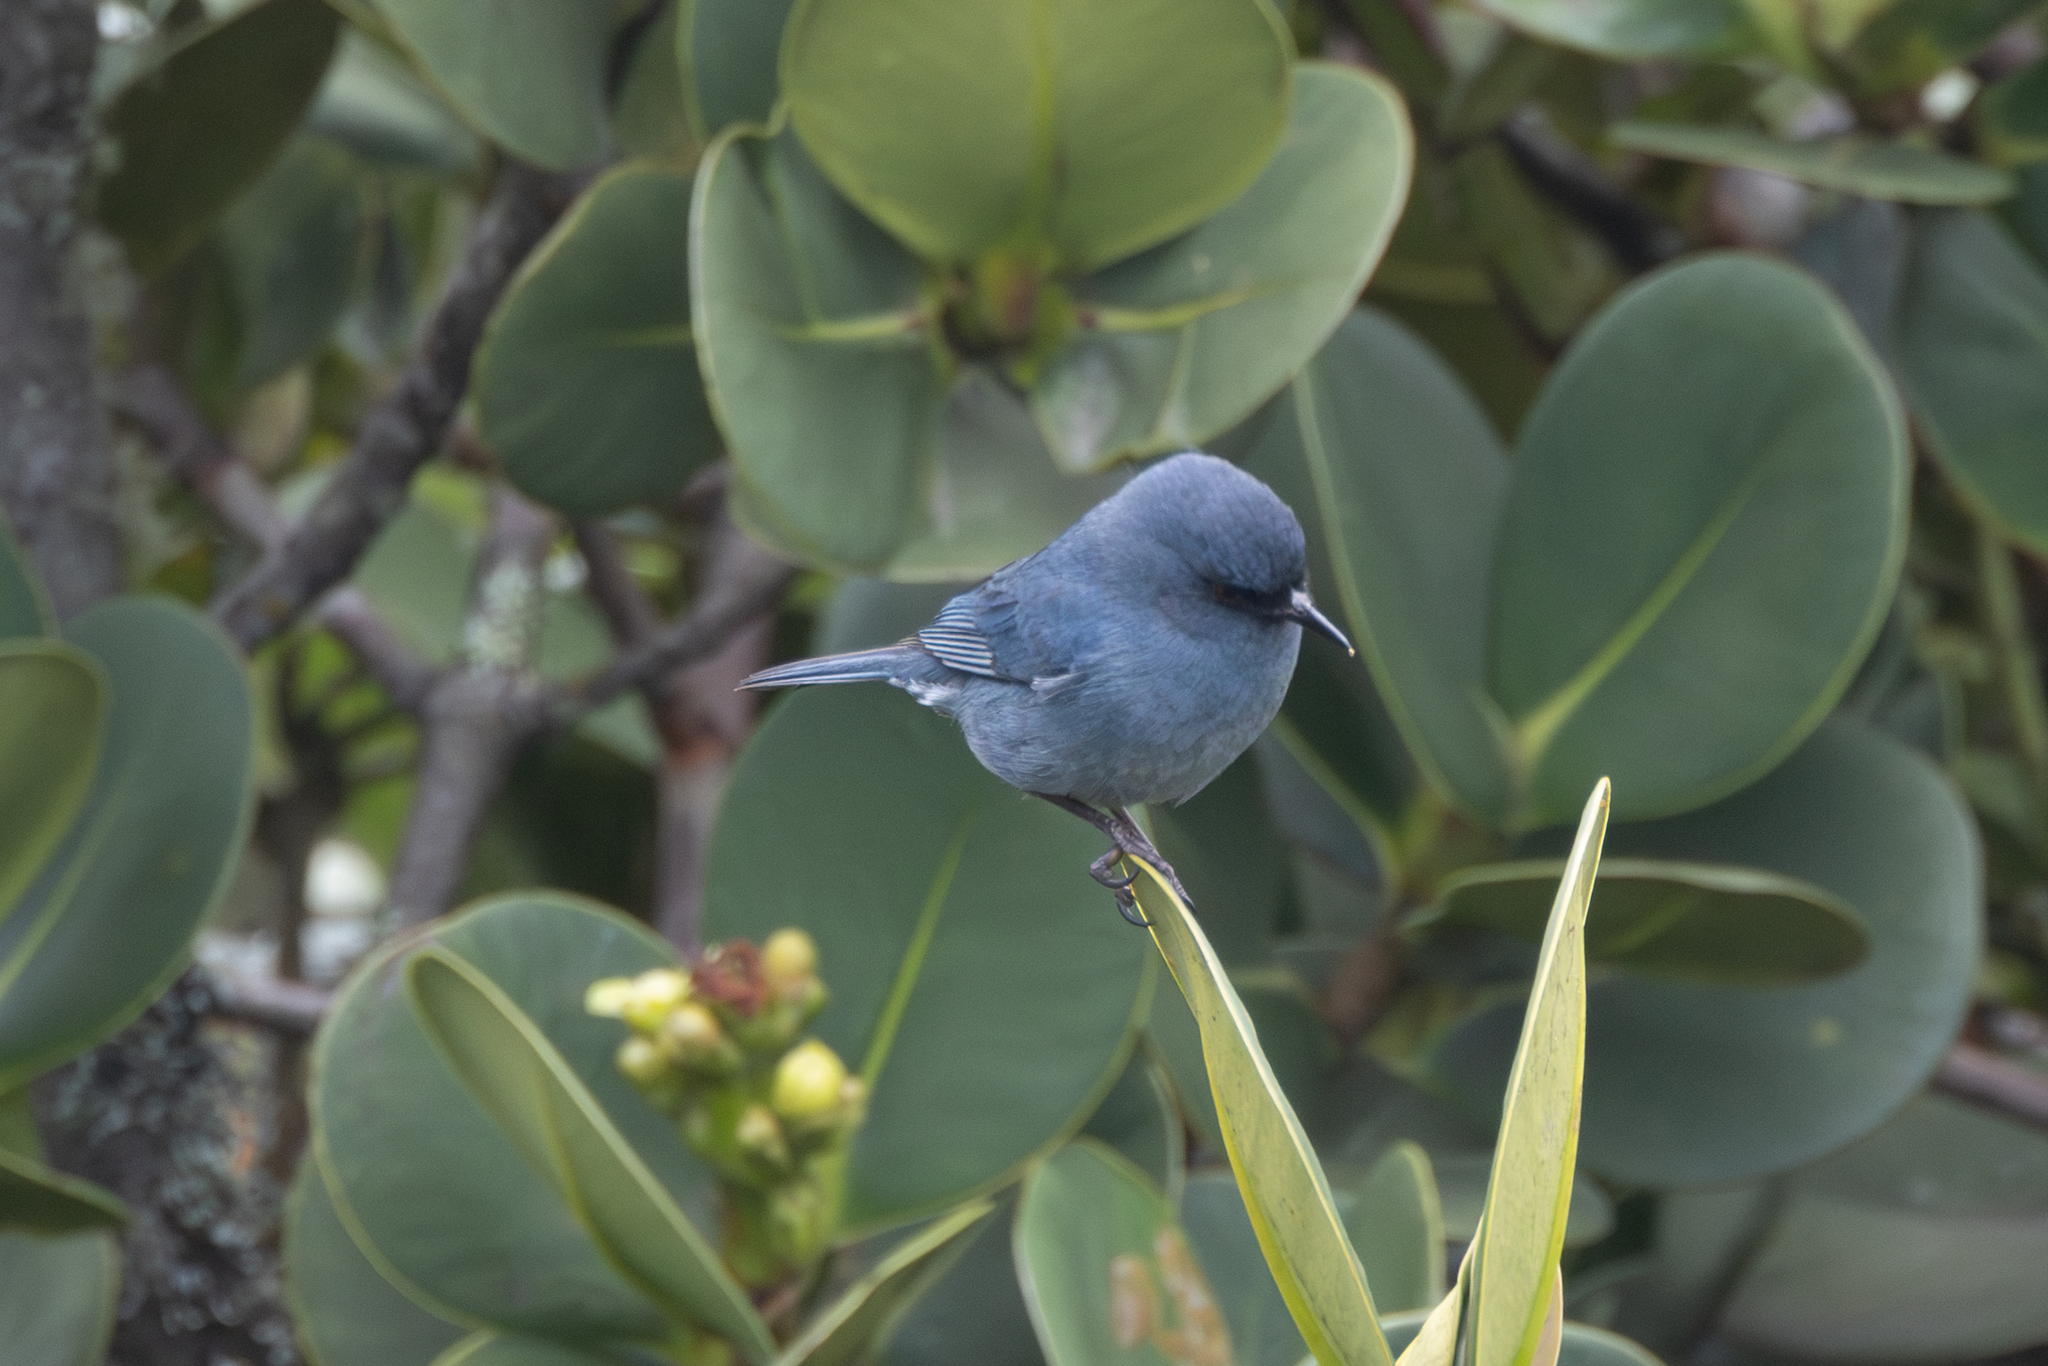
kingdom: Animalia
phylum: Chordata
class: Aves
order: Passeriformes
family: Thraupidae
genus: Diglossa
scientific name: Diglossa caerulescens
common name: Bluish flowerpiercer
